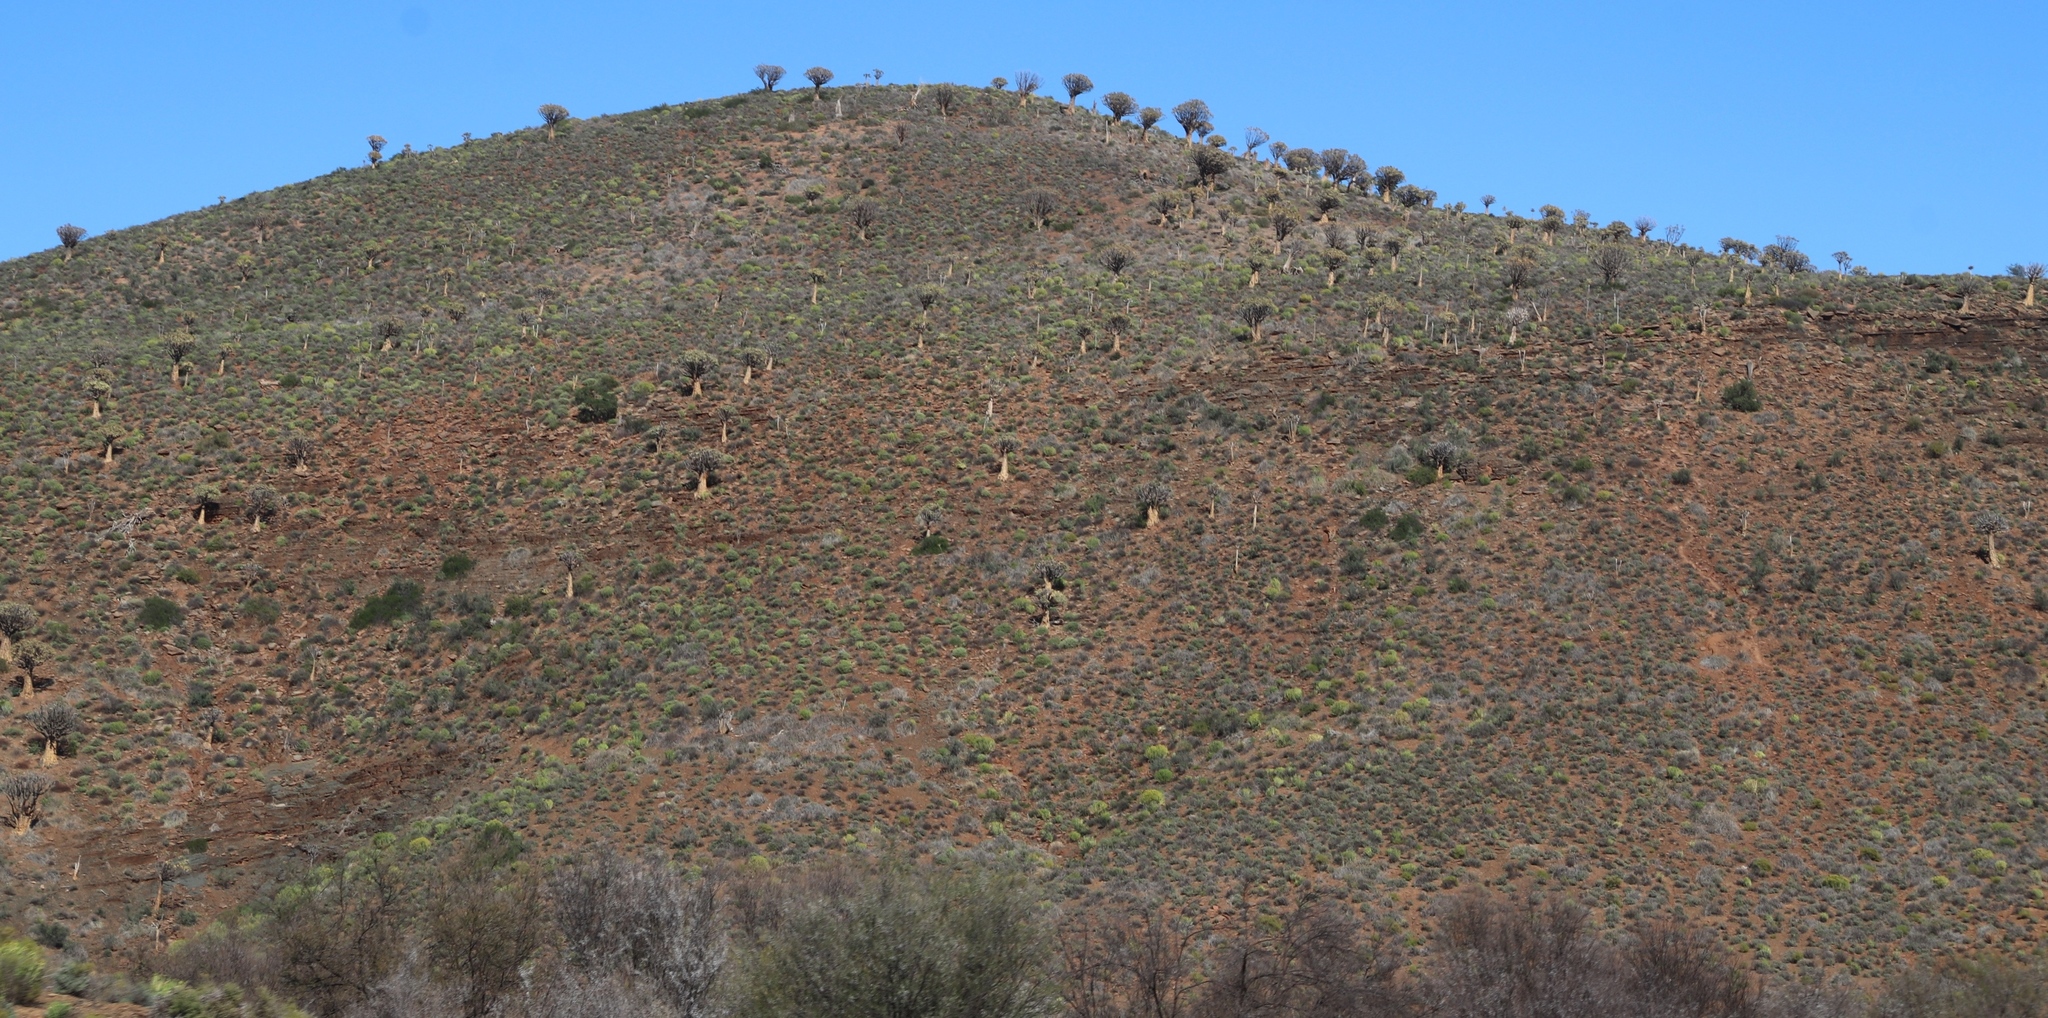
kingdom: Plantae
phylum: Tracheophyta
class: Liliopsida
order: Asparagales
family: Asphodelaceae
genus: Aloidendron
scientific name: Aloidendron dichotomum
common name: Quiver tree
